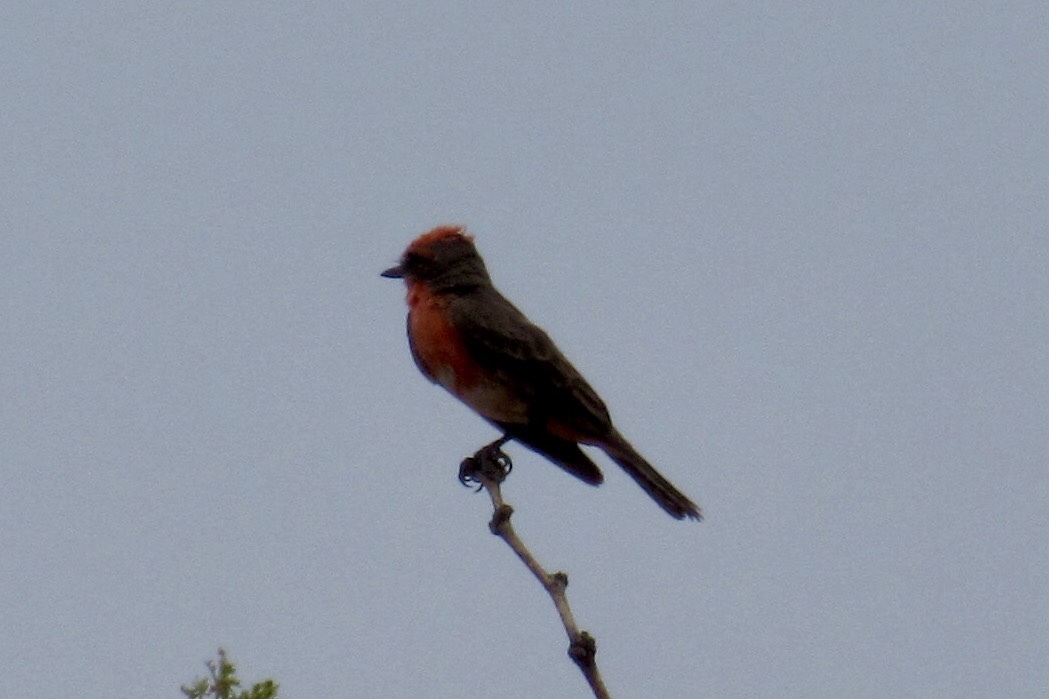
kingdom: Animalia
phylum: Chordata
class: Aves
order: Passeriformes
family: Tyrannidae
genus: Pyrocephalus
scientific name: Pyrocephalus rubinus
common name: Vermilion flycatcher
